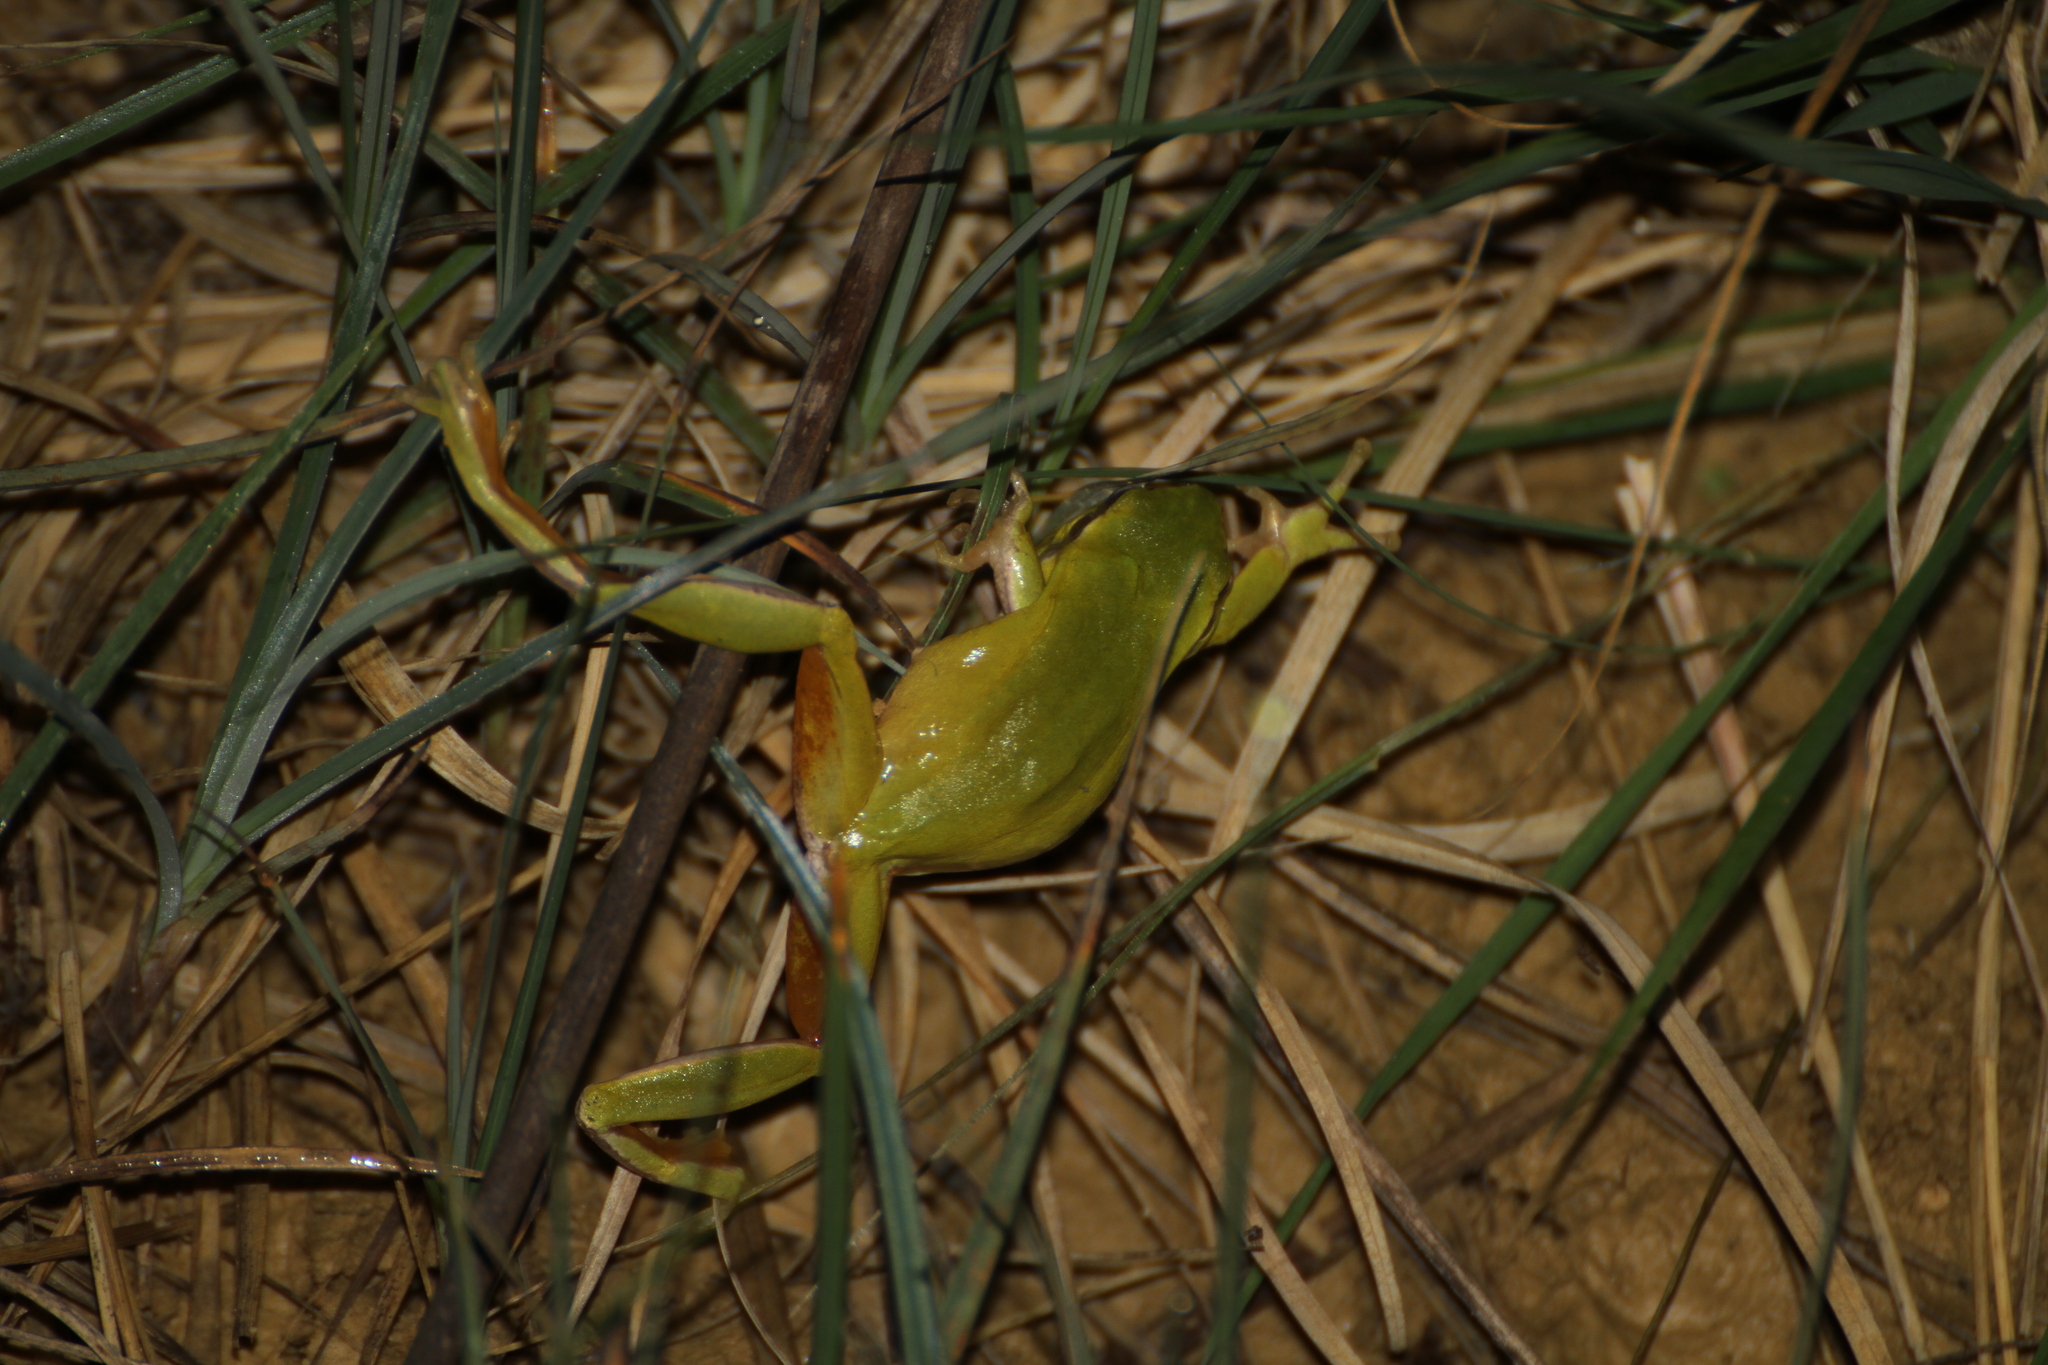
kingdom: Animalia
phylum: Chordata
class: Amphibia
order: Anura
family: Hylidae
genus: Hyla
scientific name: Hyla meridionalis
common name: Stripeless tree frog
